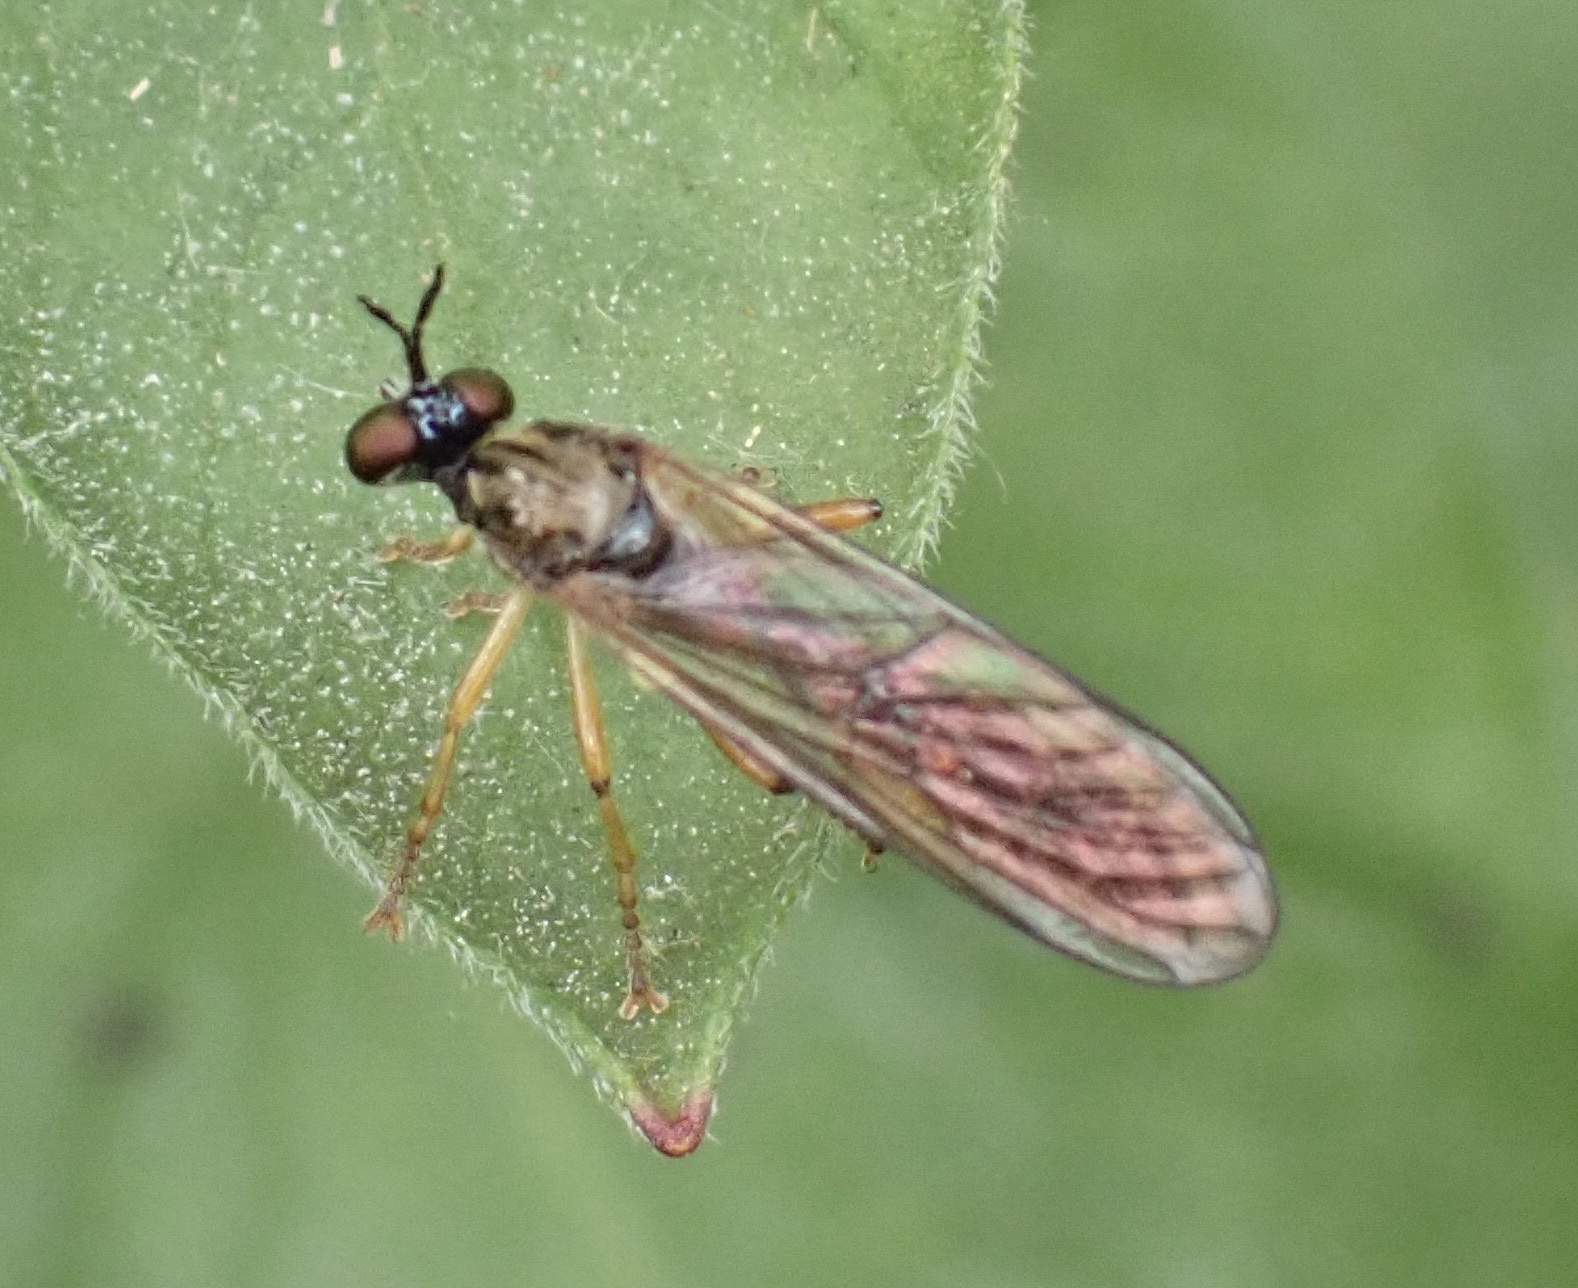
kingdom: Animalia
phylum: Arthropoda
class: Insecta
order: Diptera
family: Asilidae
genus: Dioctria
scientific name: Dioctria linearis
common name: Small yellow-legged robberfly
